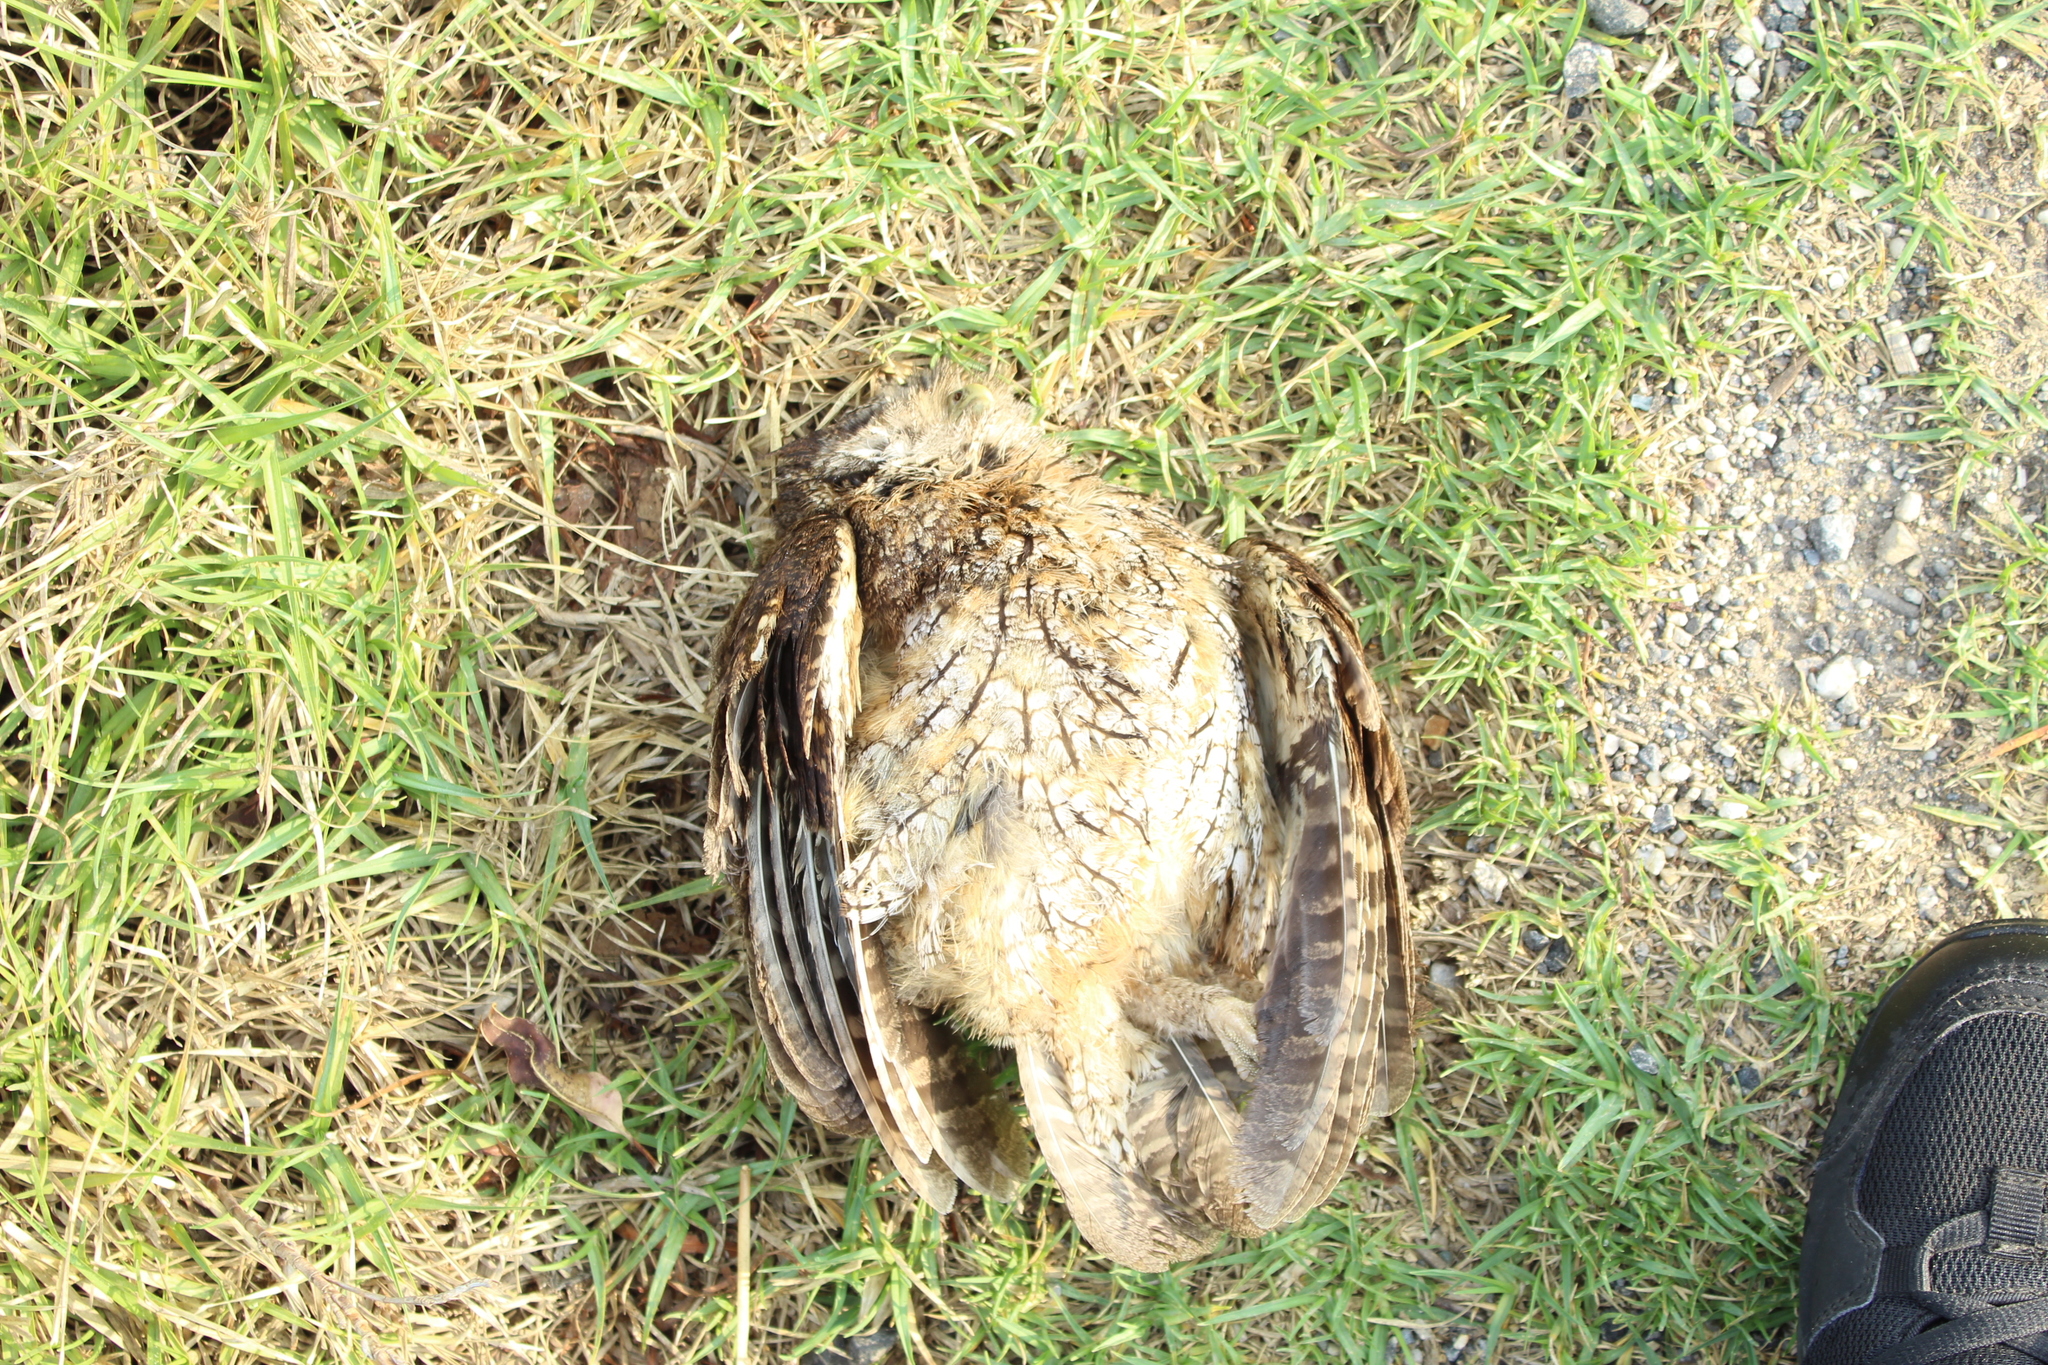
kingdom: Animalia
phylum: Chordata
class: Aves
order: Strigiformes
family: Strigidae
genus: Megascops
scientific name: Megascops choliba
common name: Tropical screech-owl
